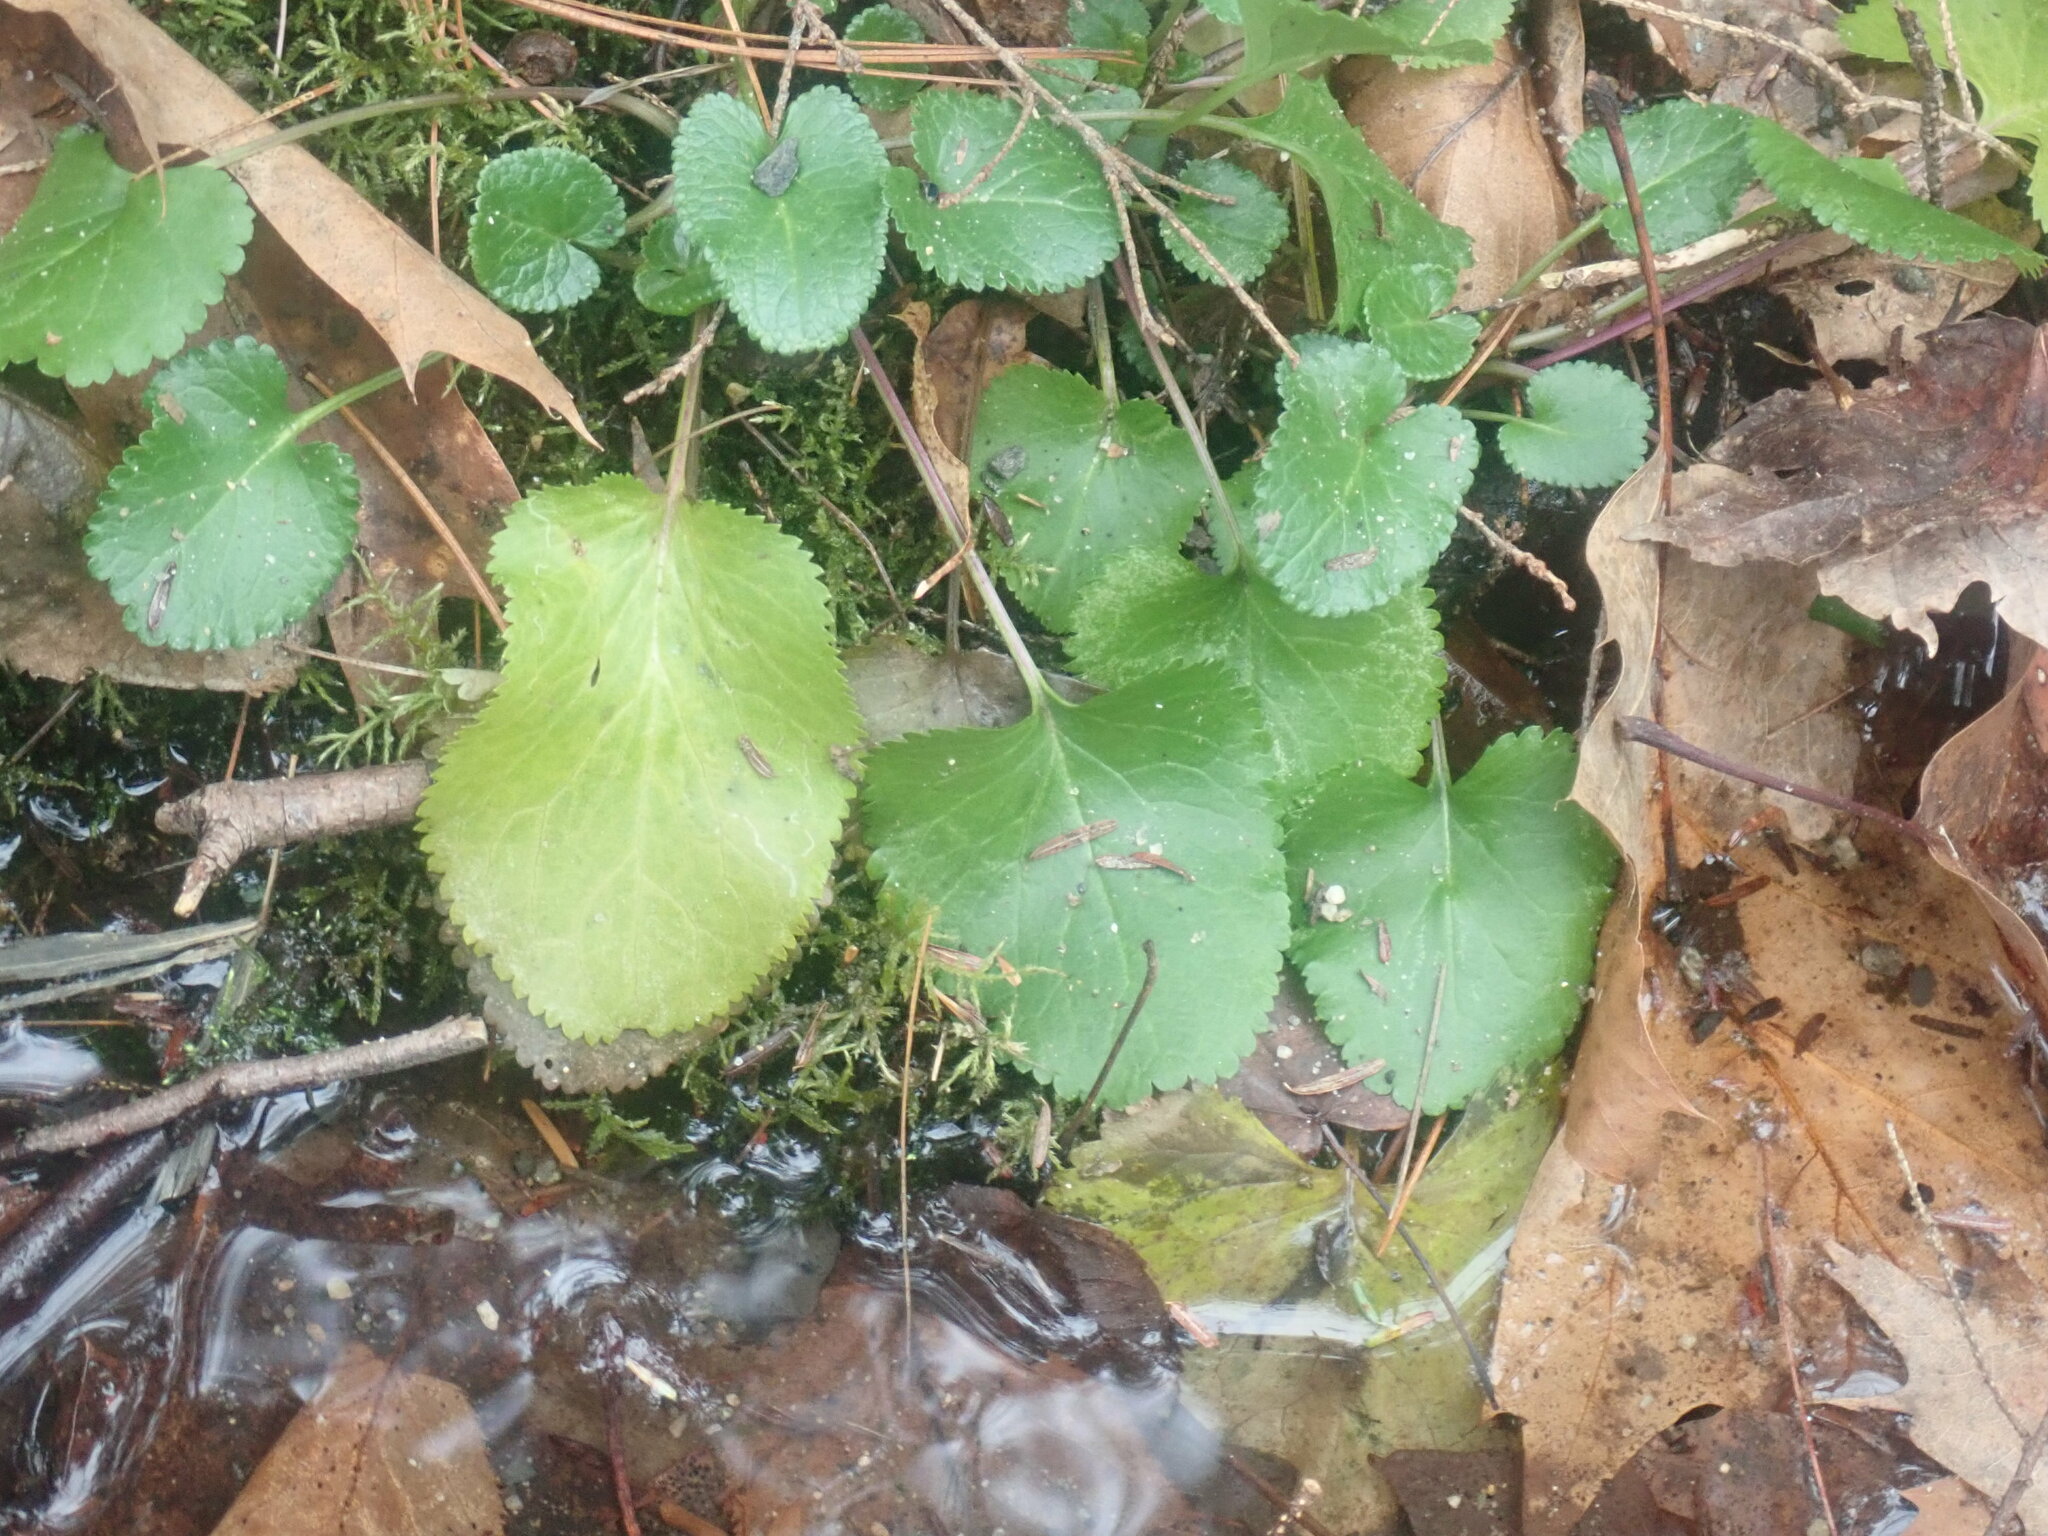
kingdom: Plantae
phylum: Tracheophyta
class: Magnoliopsida
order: Asterales
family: Asteraceae
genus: Packera
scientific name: Packera aurea
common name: Golden groundsel
